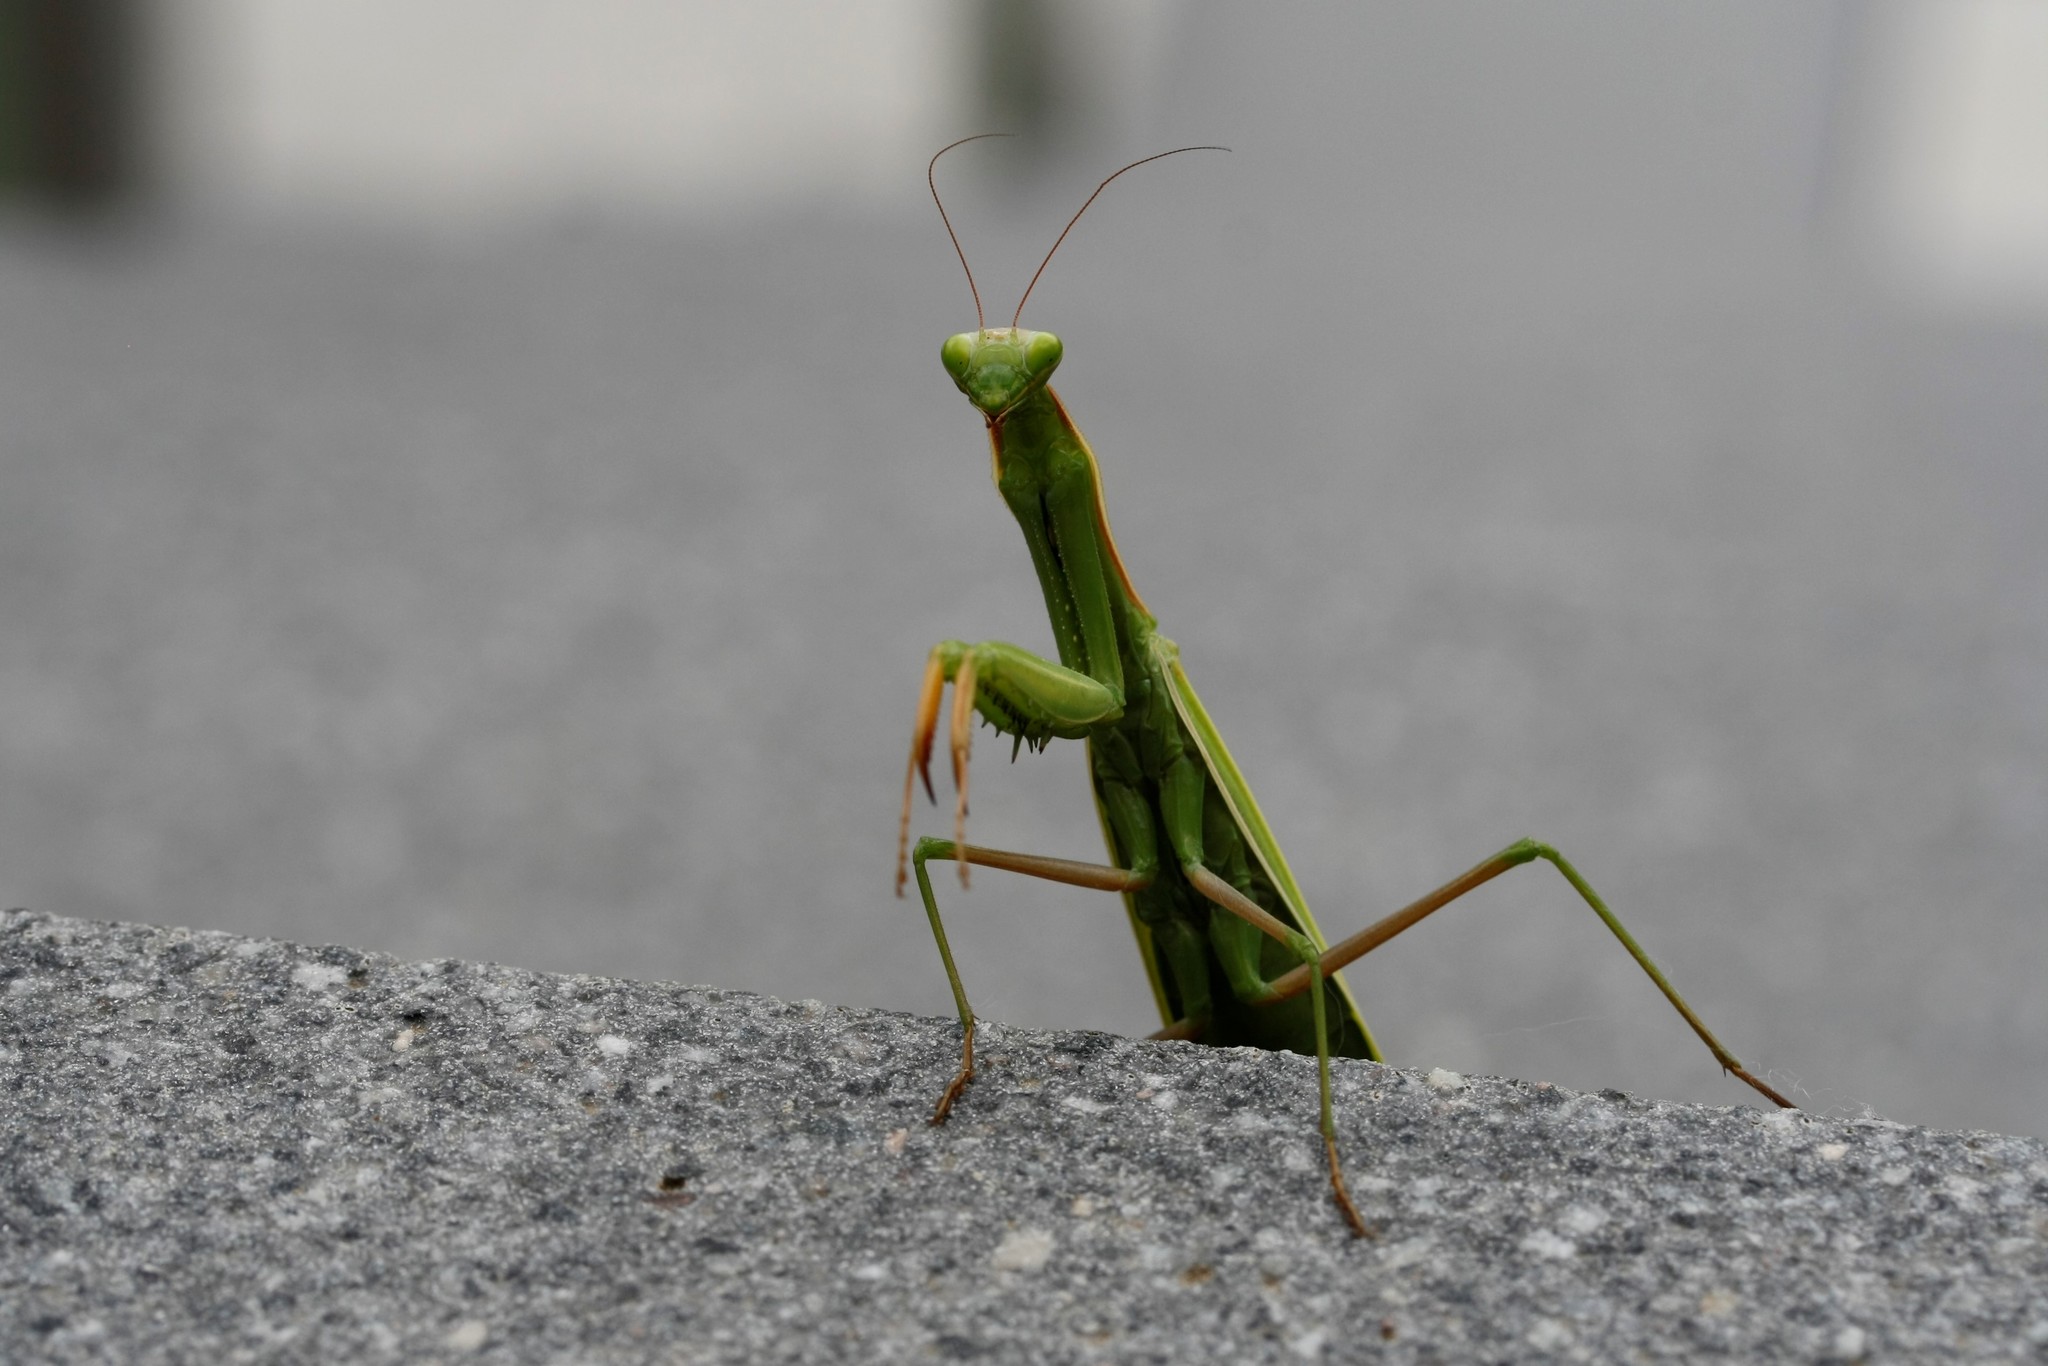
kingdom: Animalia
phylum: Arthropoda
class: Insecta
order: Mantodea
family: Mantidae
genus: Mantis
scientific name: Mantis religiosa
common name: Praying mantis
